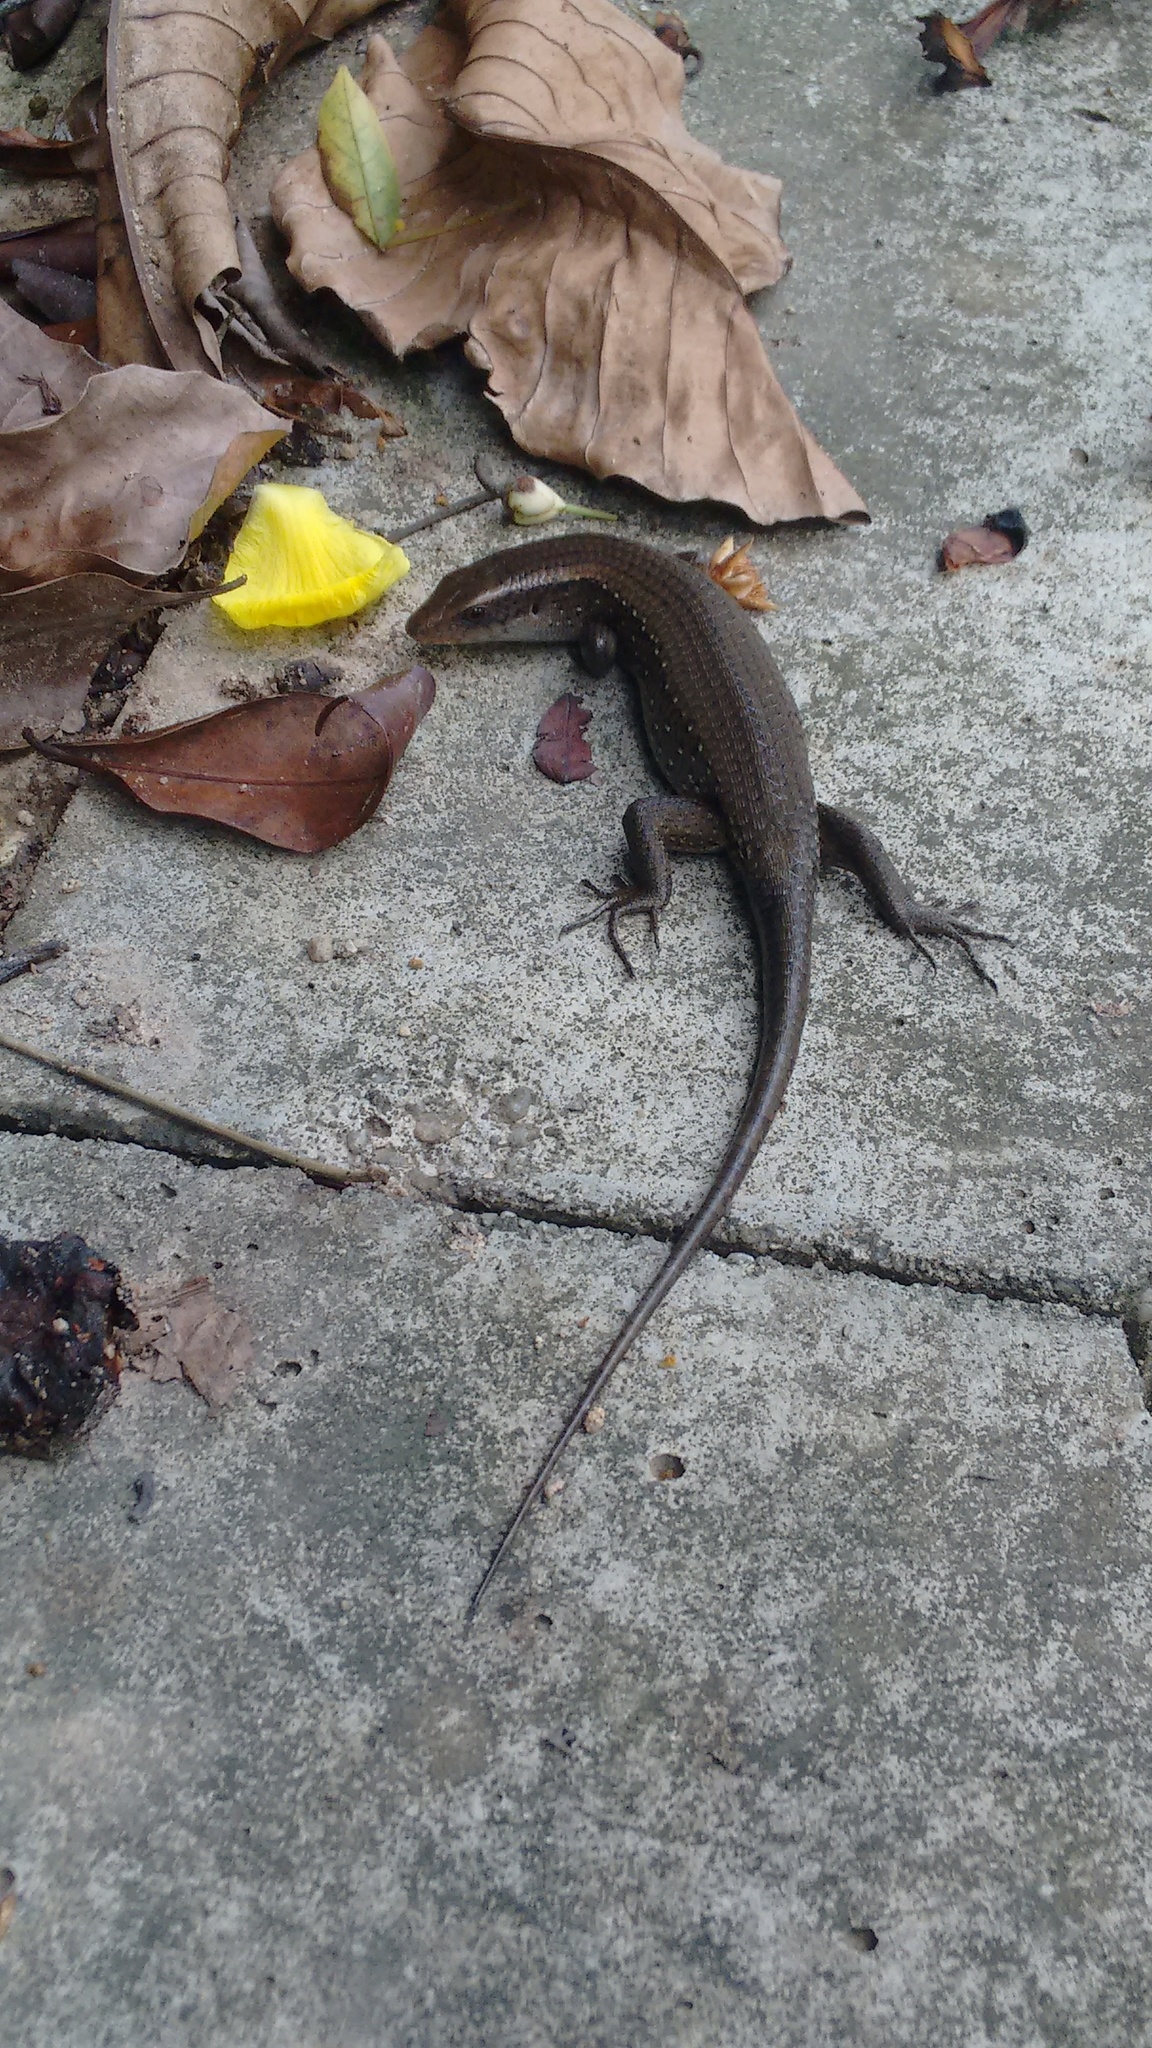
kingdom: Animalia
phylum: Chordata
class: Squamata
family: Scincidae
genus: Eutropis
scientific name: Eutropis multifasciata
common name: Common mabuya
